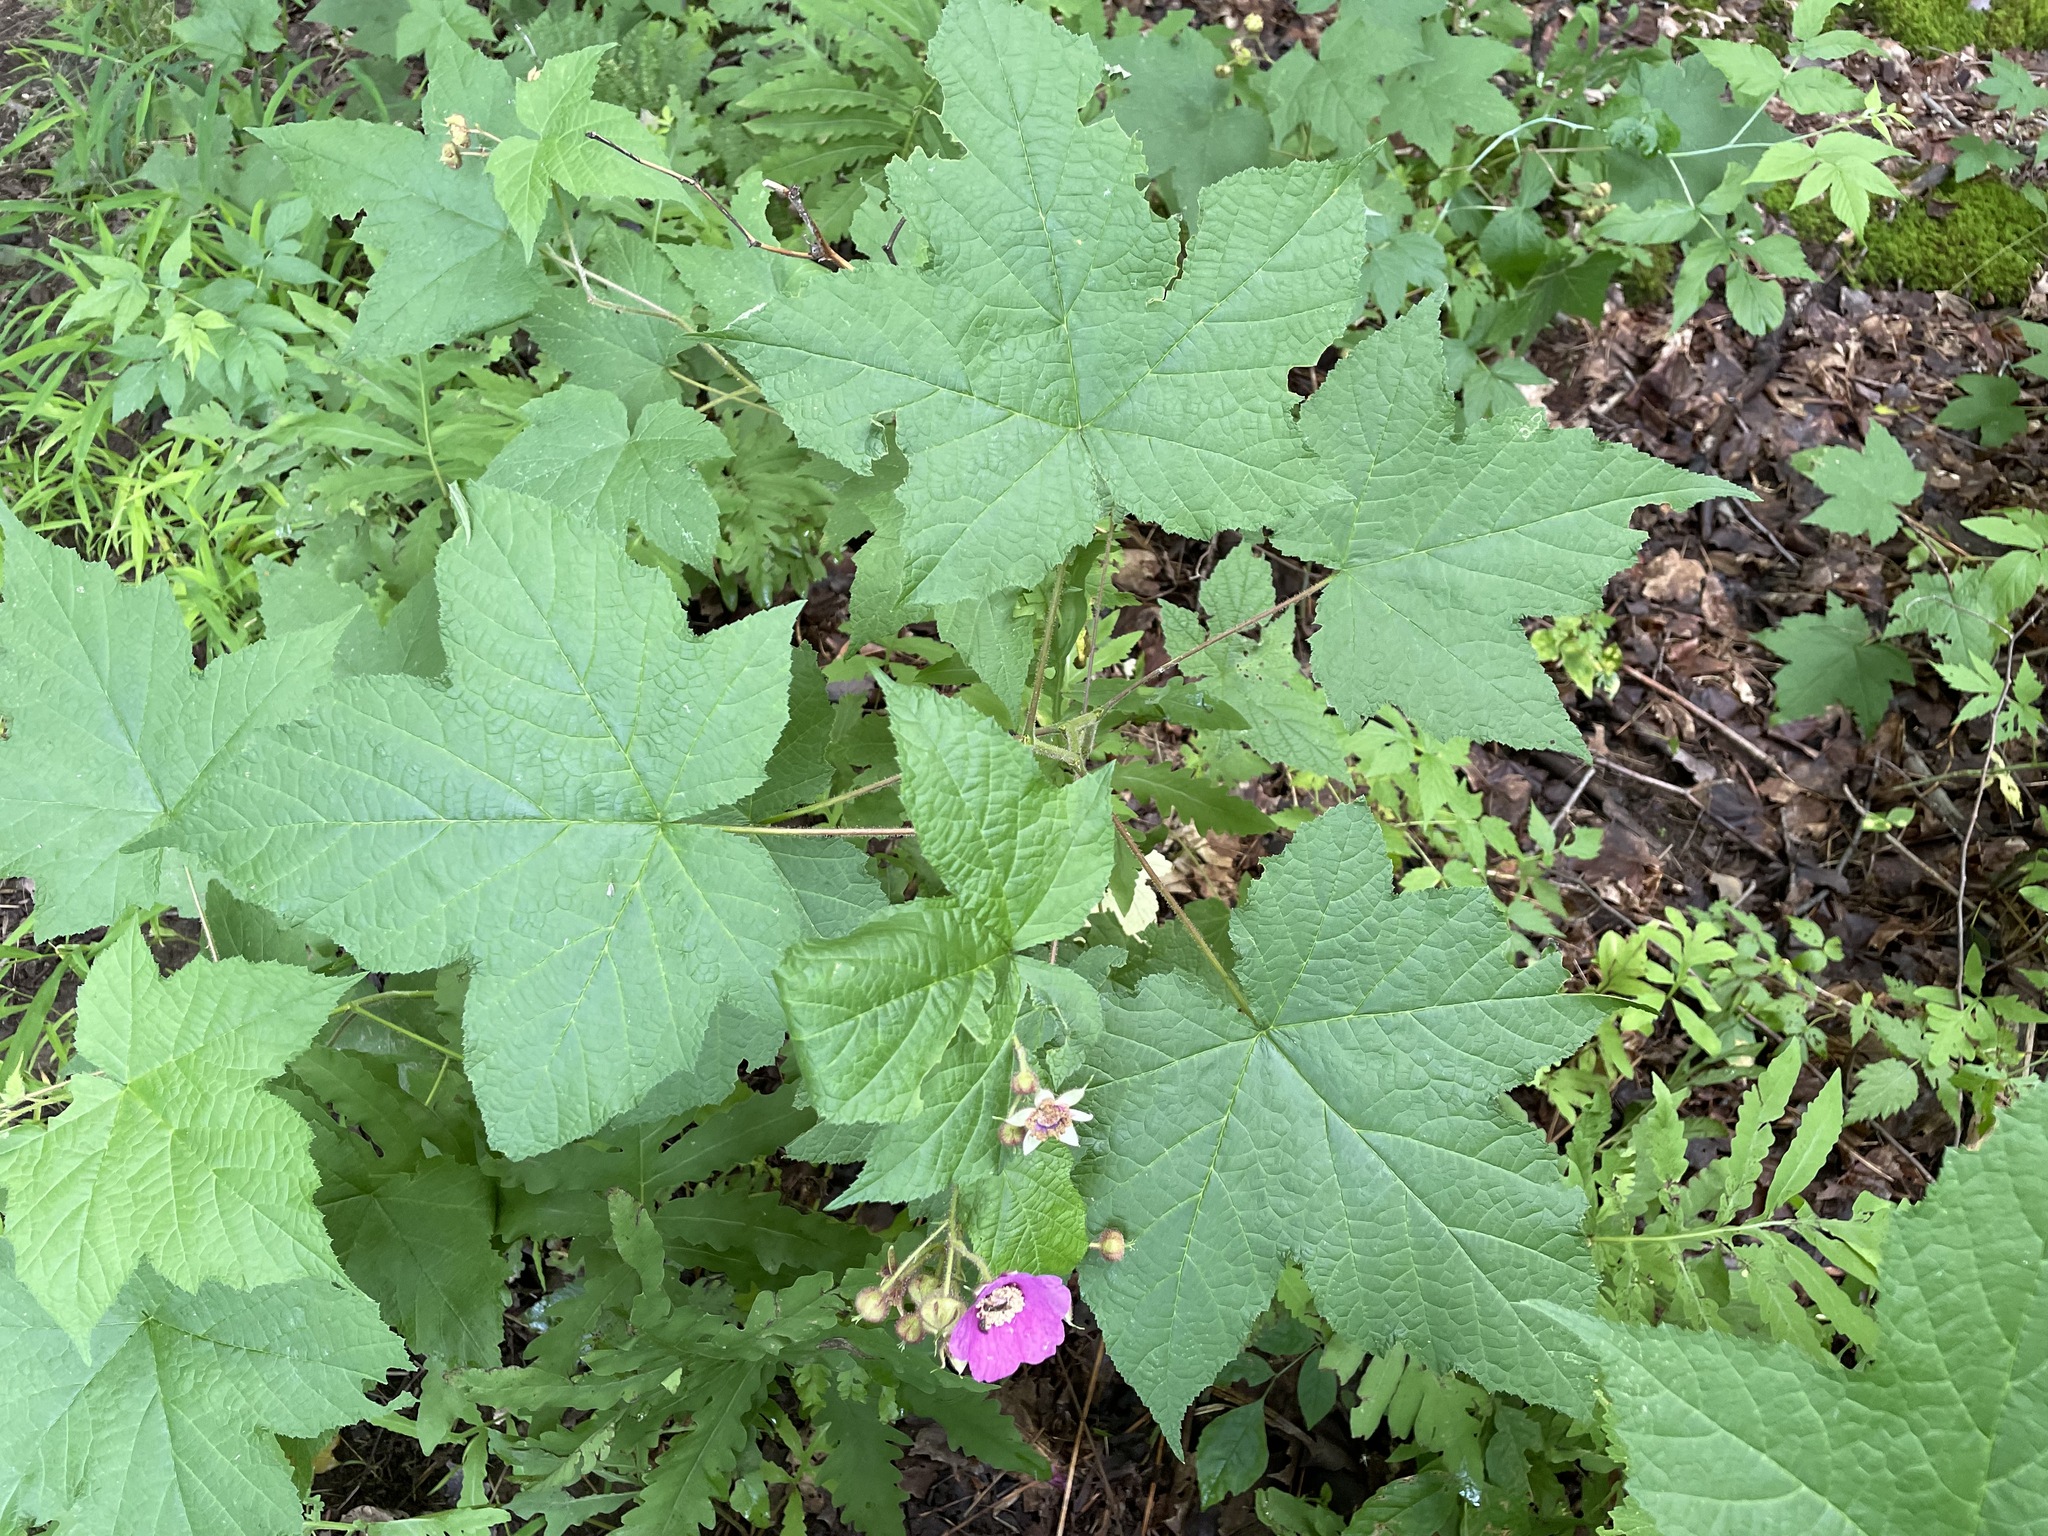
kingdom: Plantae
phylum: Tracheophyta
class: Magnoliopsida
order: Rosales
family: Rosaceae
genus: Rubus
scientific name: Rubus odoratus
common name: Purple-flowered raspberry
